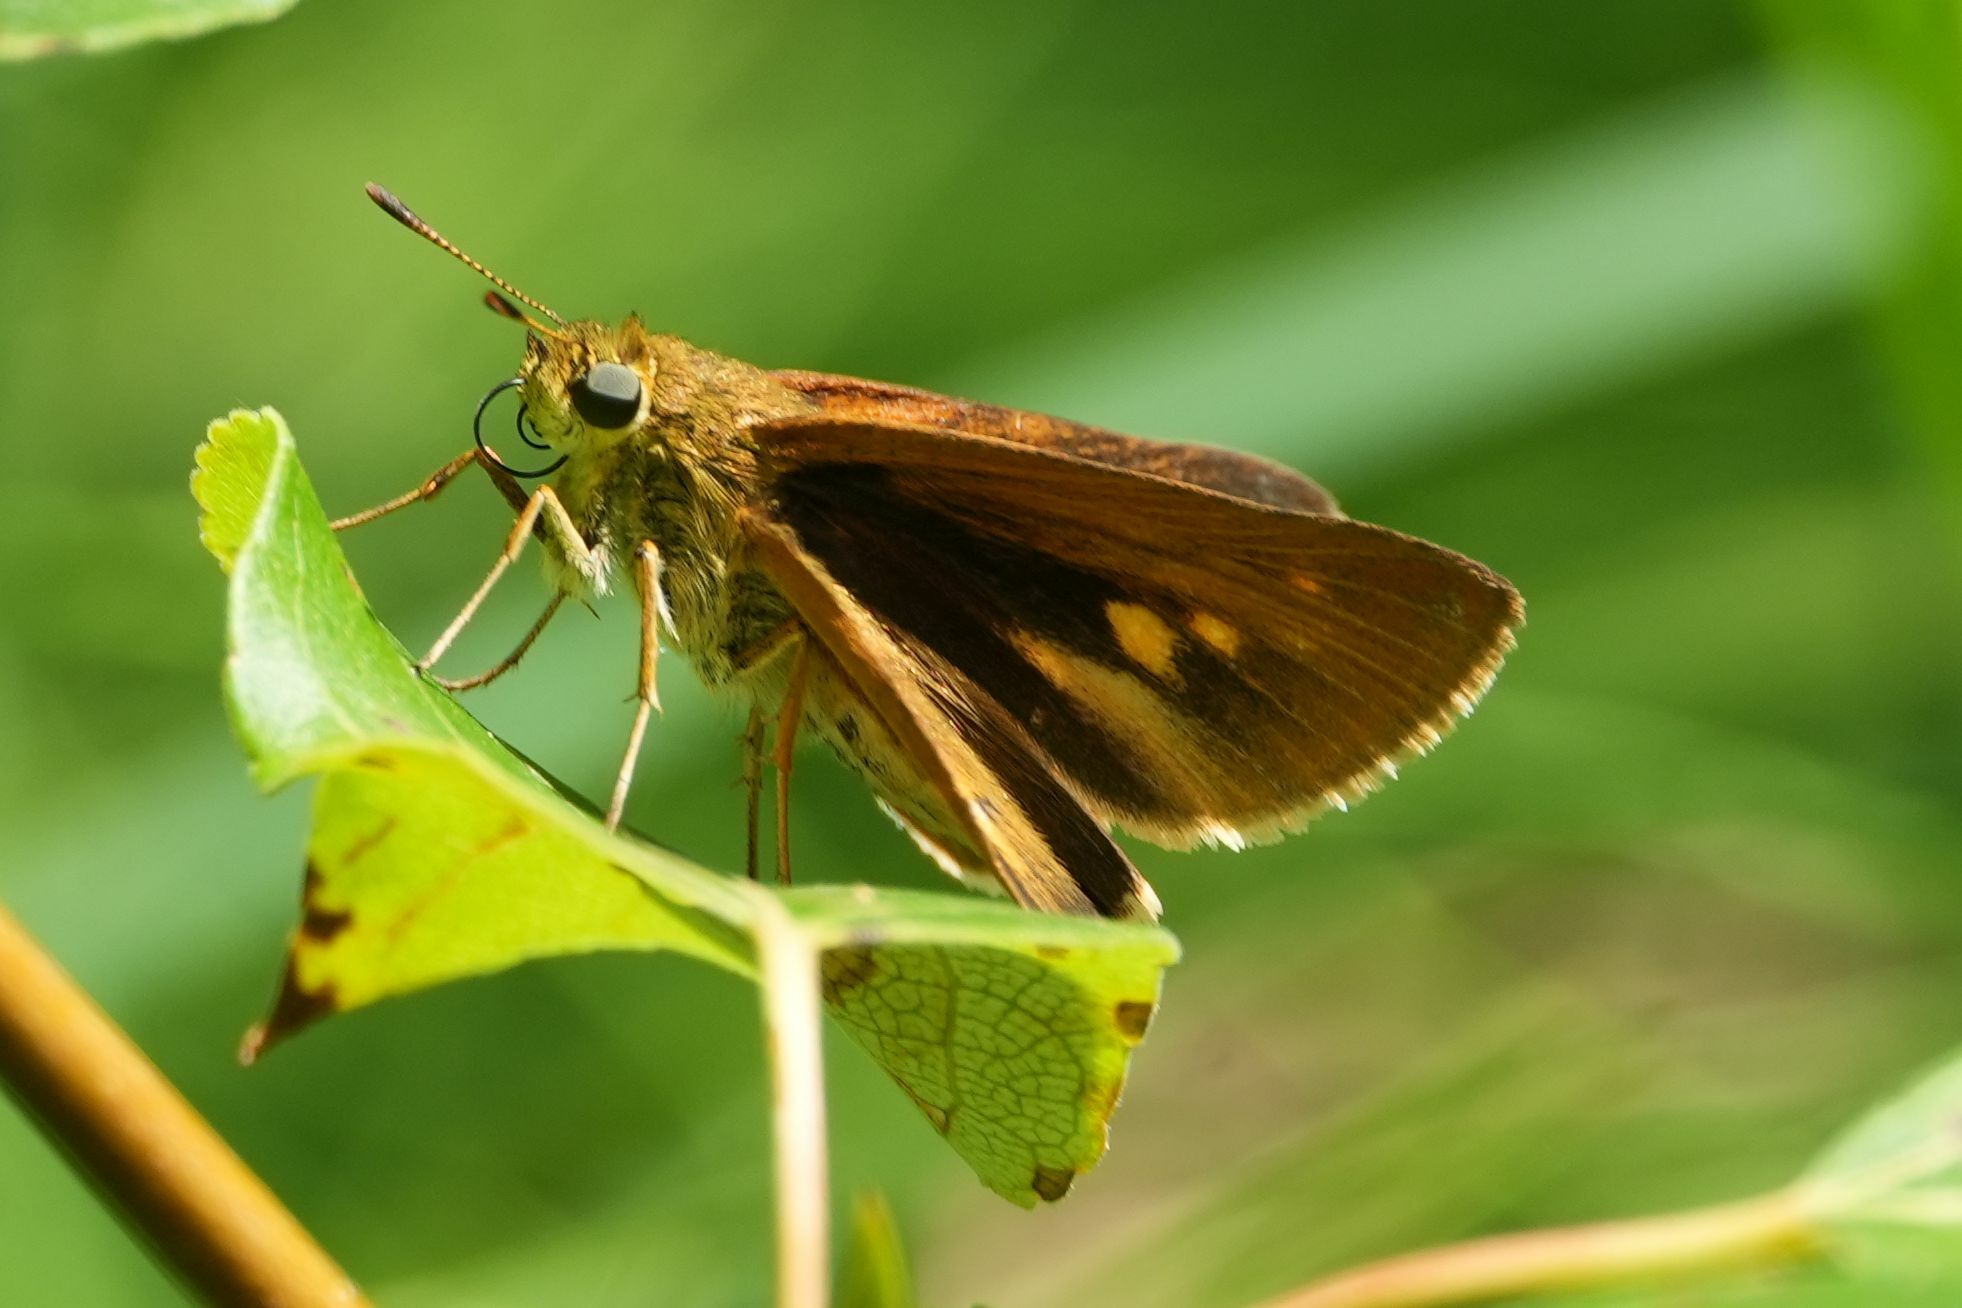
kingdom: Animalia
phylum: Arthropoda
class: Insecta
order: Lepidoptera
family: Hesperiidae
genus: Euphyes
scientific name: Euphyes dion
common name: Dion skipper
